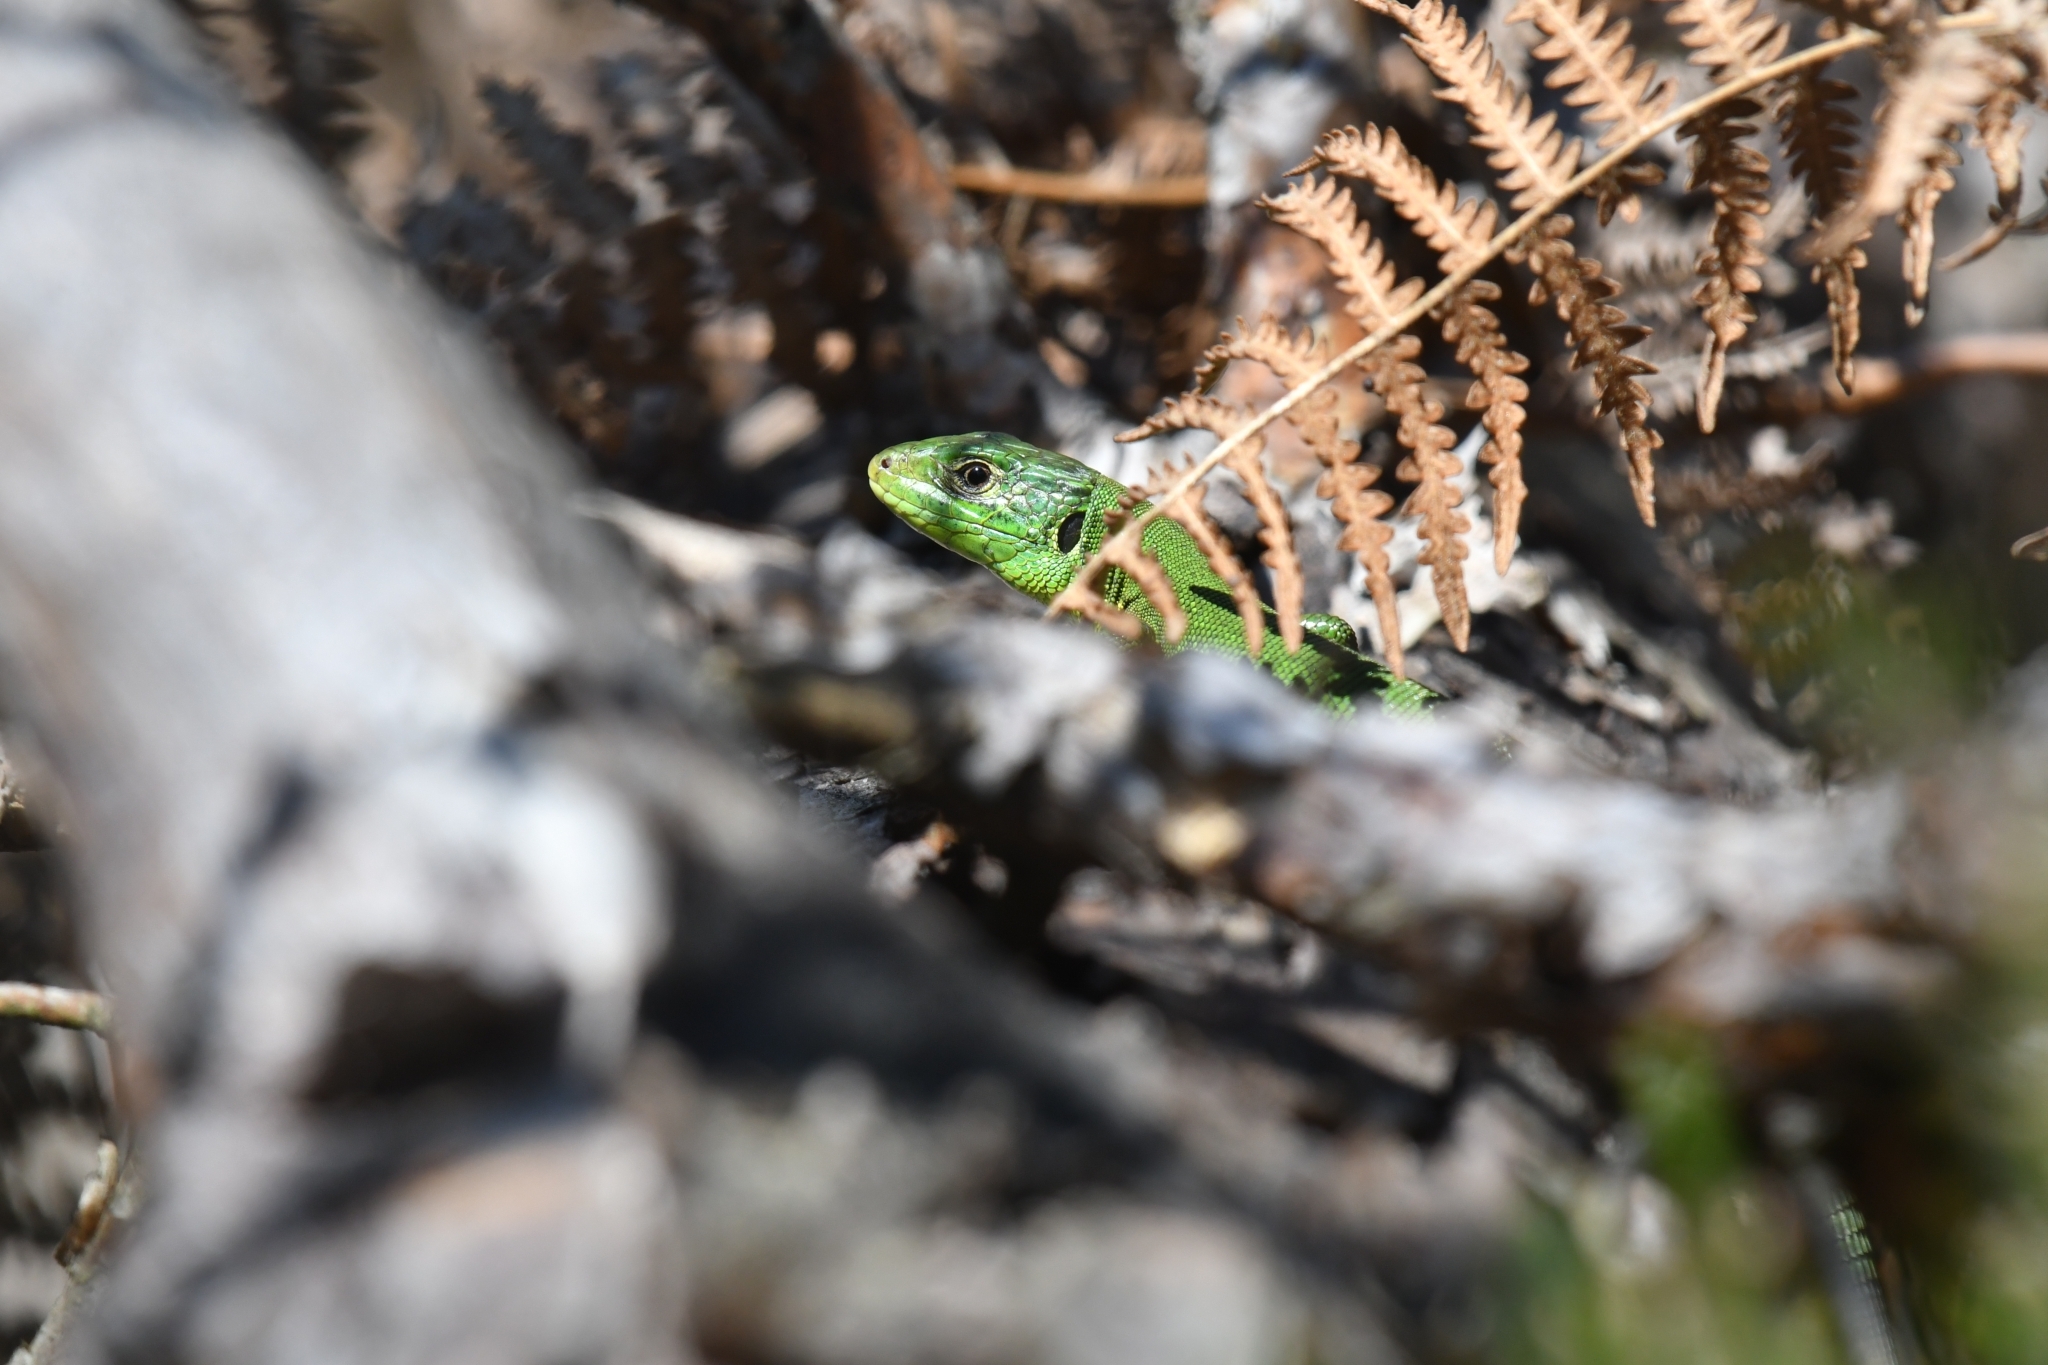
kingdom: Animalia
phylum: Chordata
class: Squamata
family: Lacertidae
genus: Lacerta
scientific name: Lacerta bilineata
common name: Western green lizard
